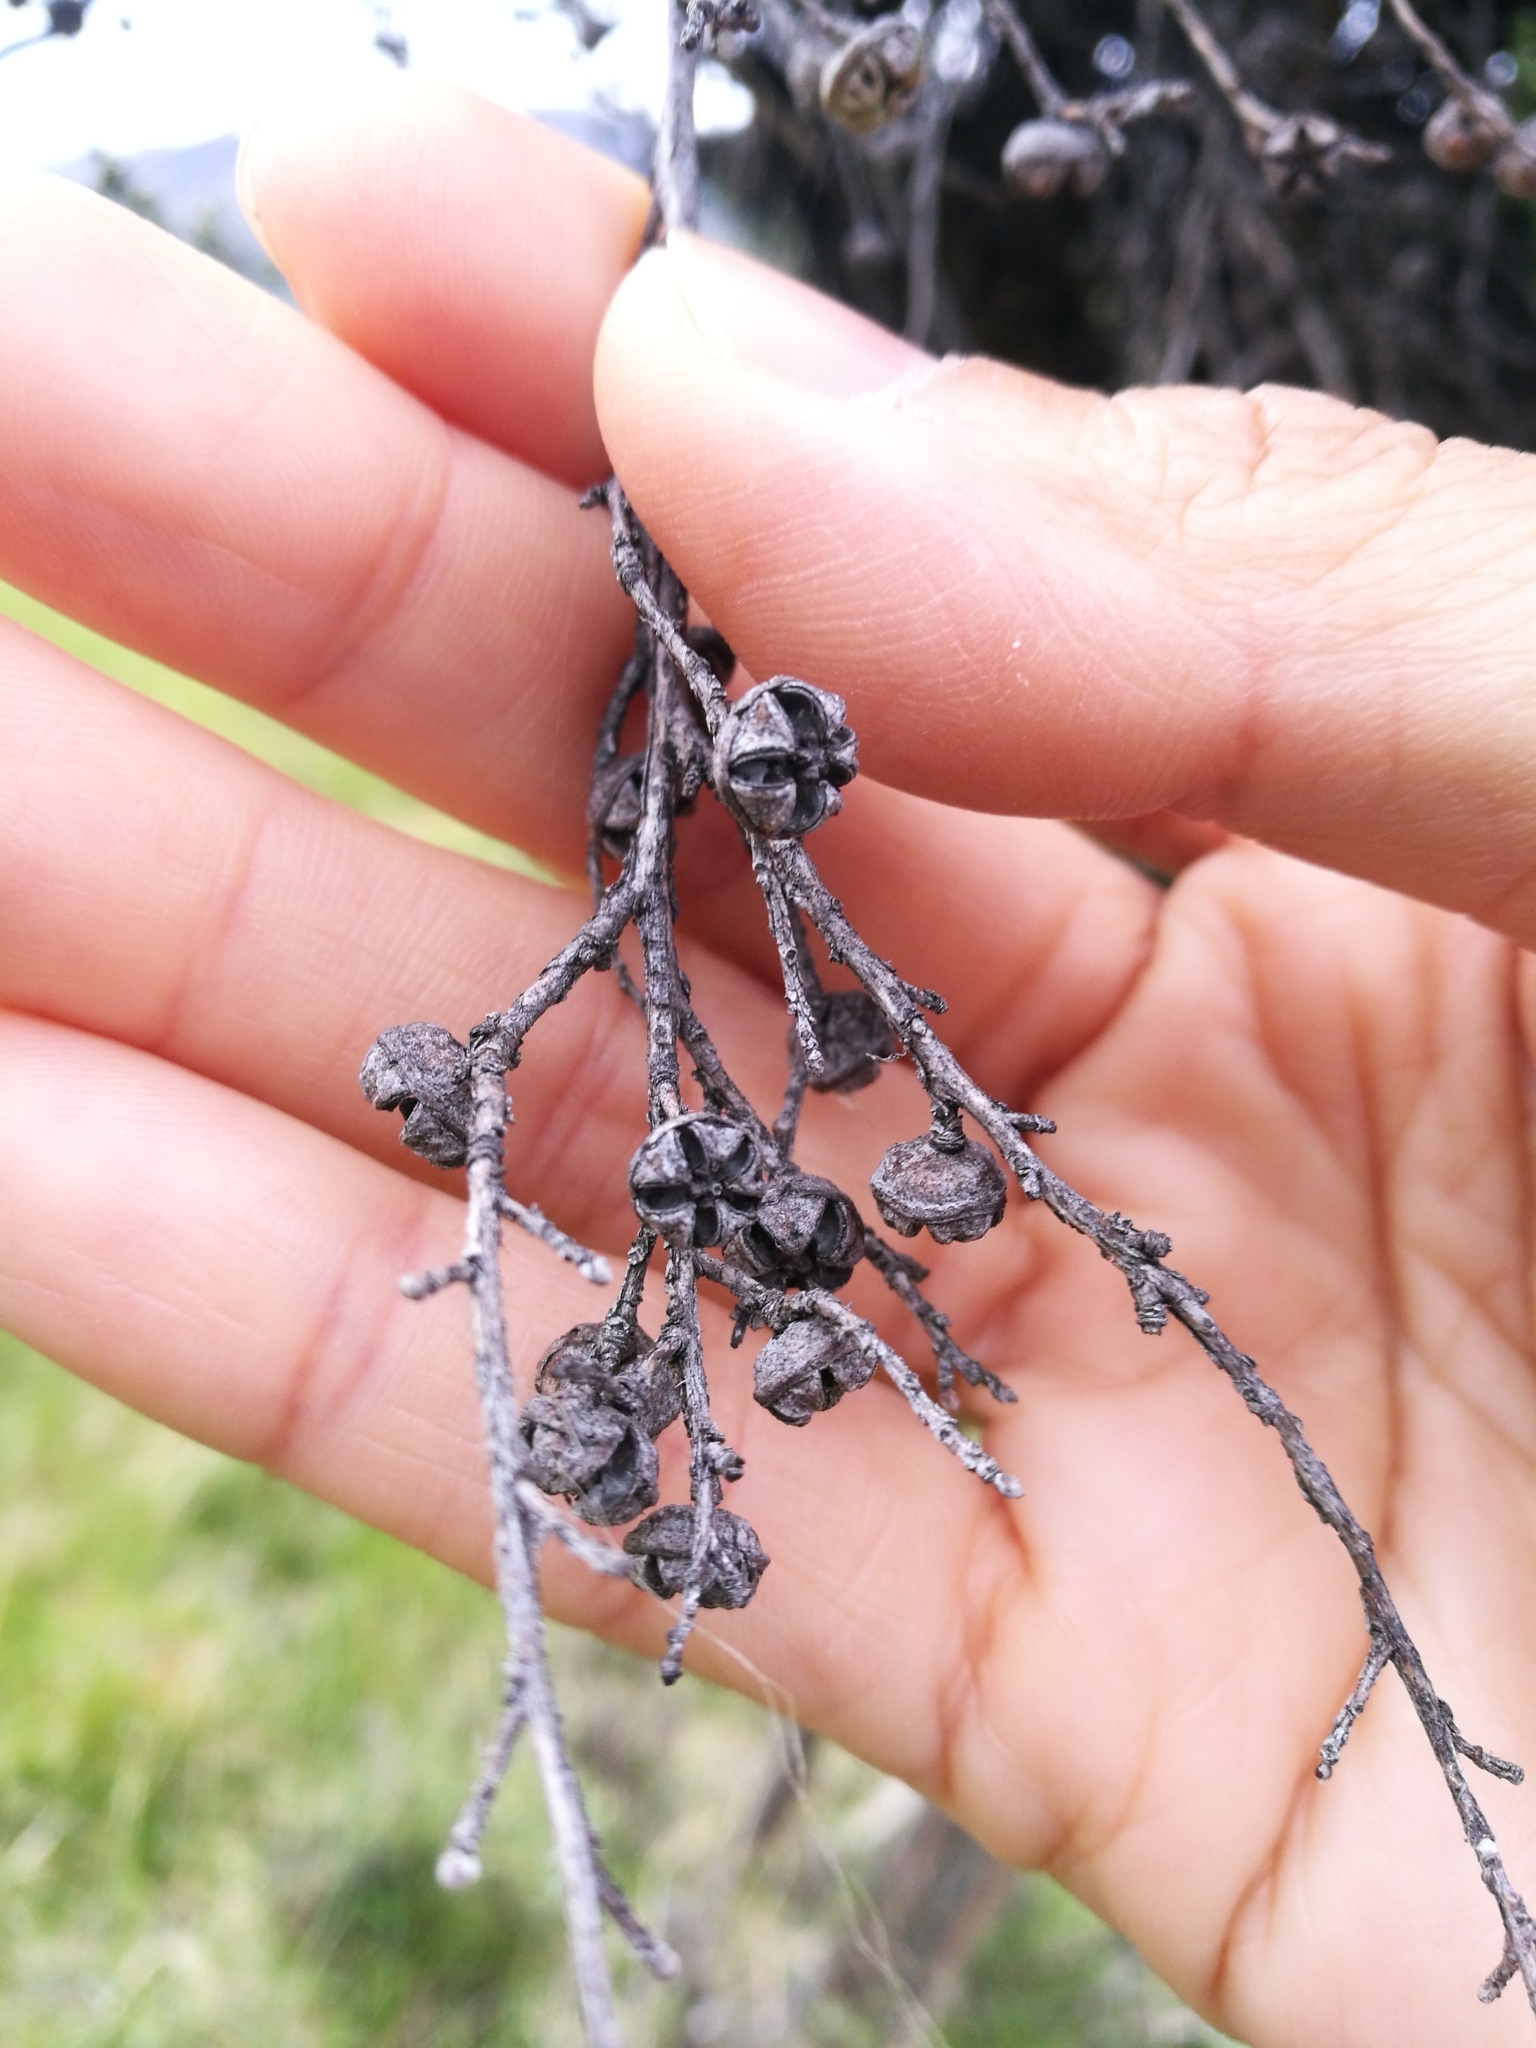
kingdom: Plantae
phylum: Tracheophyta
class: Magnoliopsida
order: Myrtales
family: Myrtaceae
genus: Leptospermum
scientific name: Leptospermum scoparium
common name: Broom tea-tree
